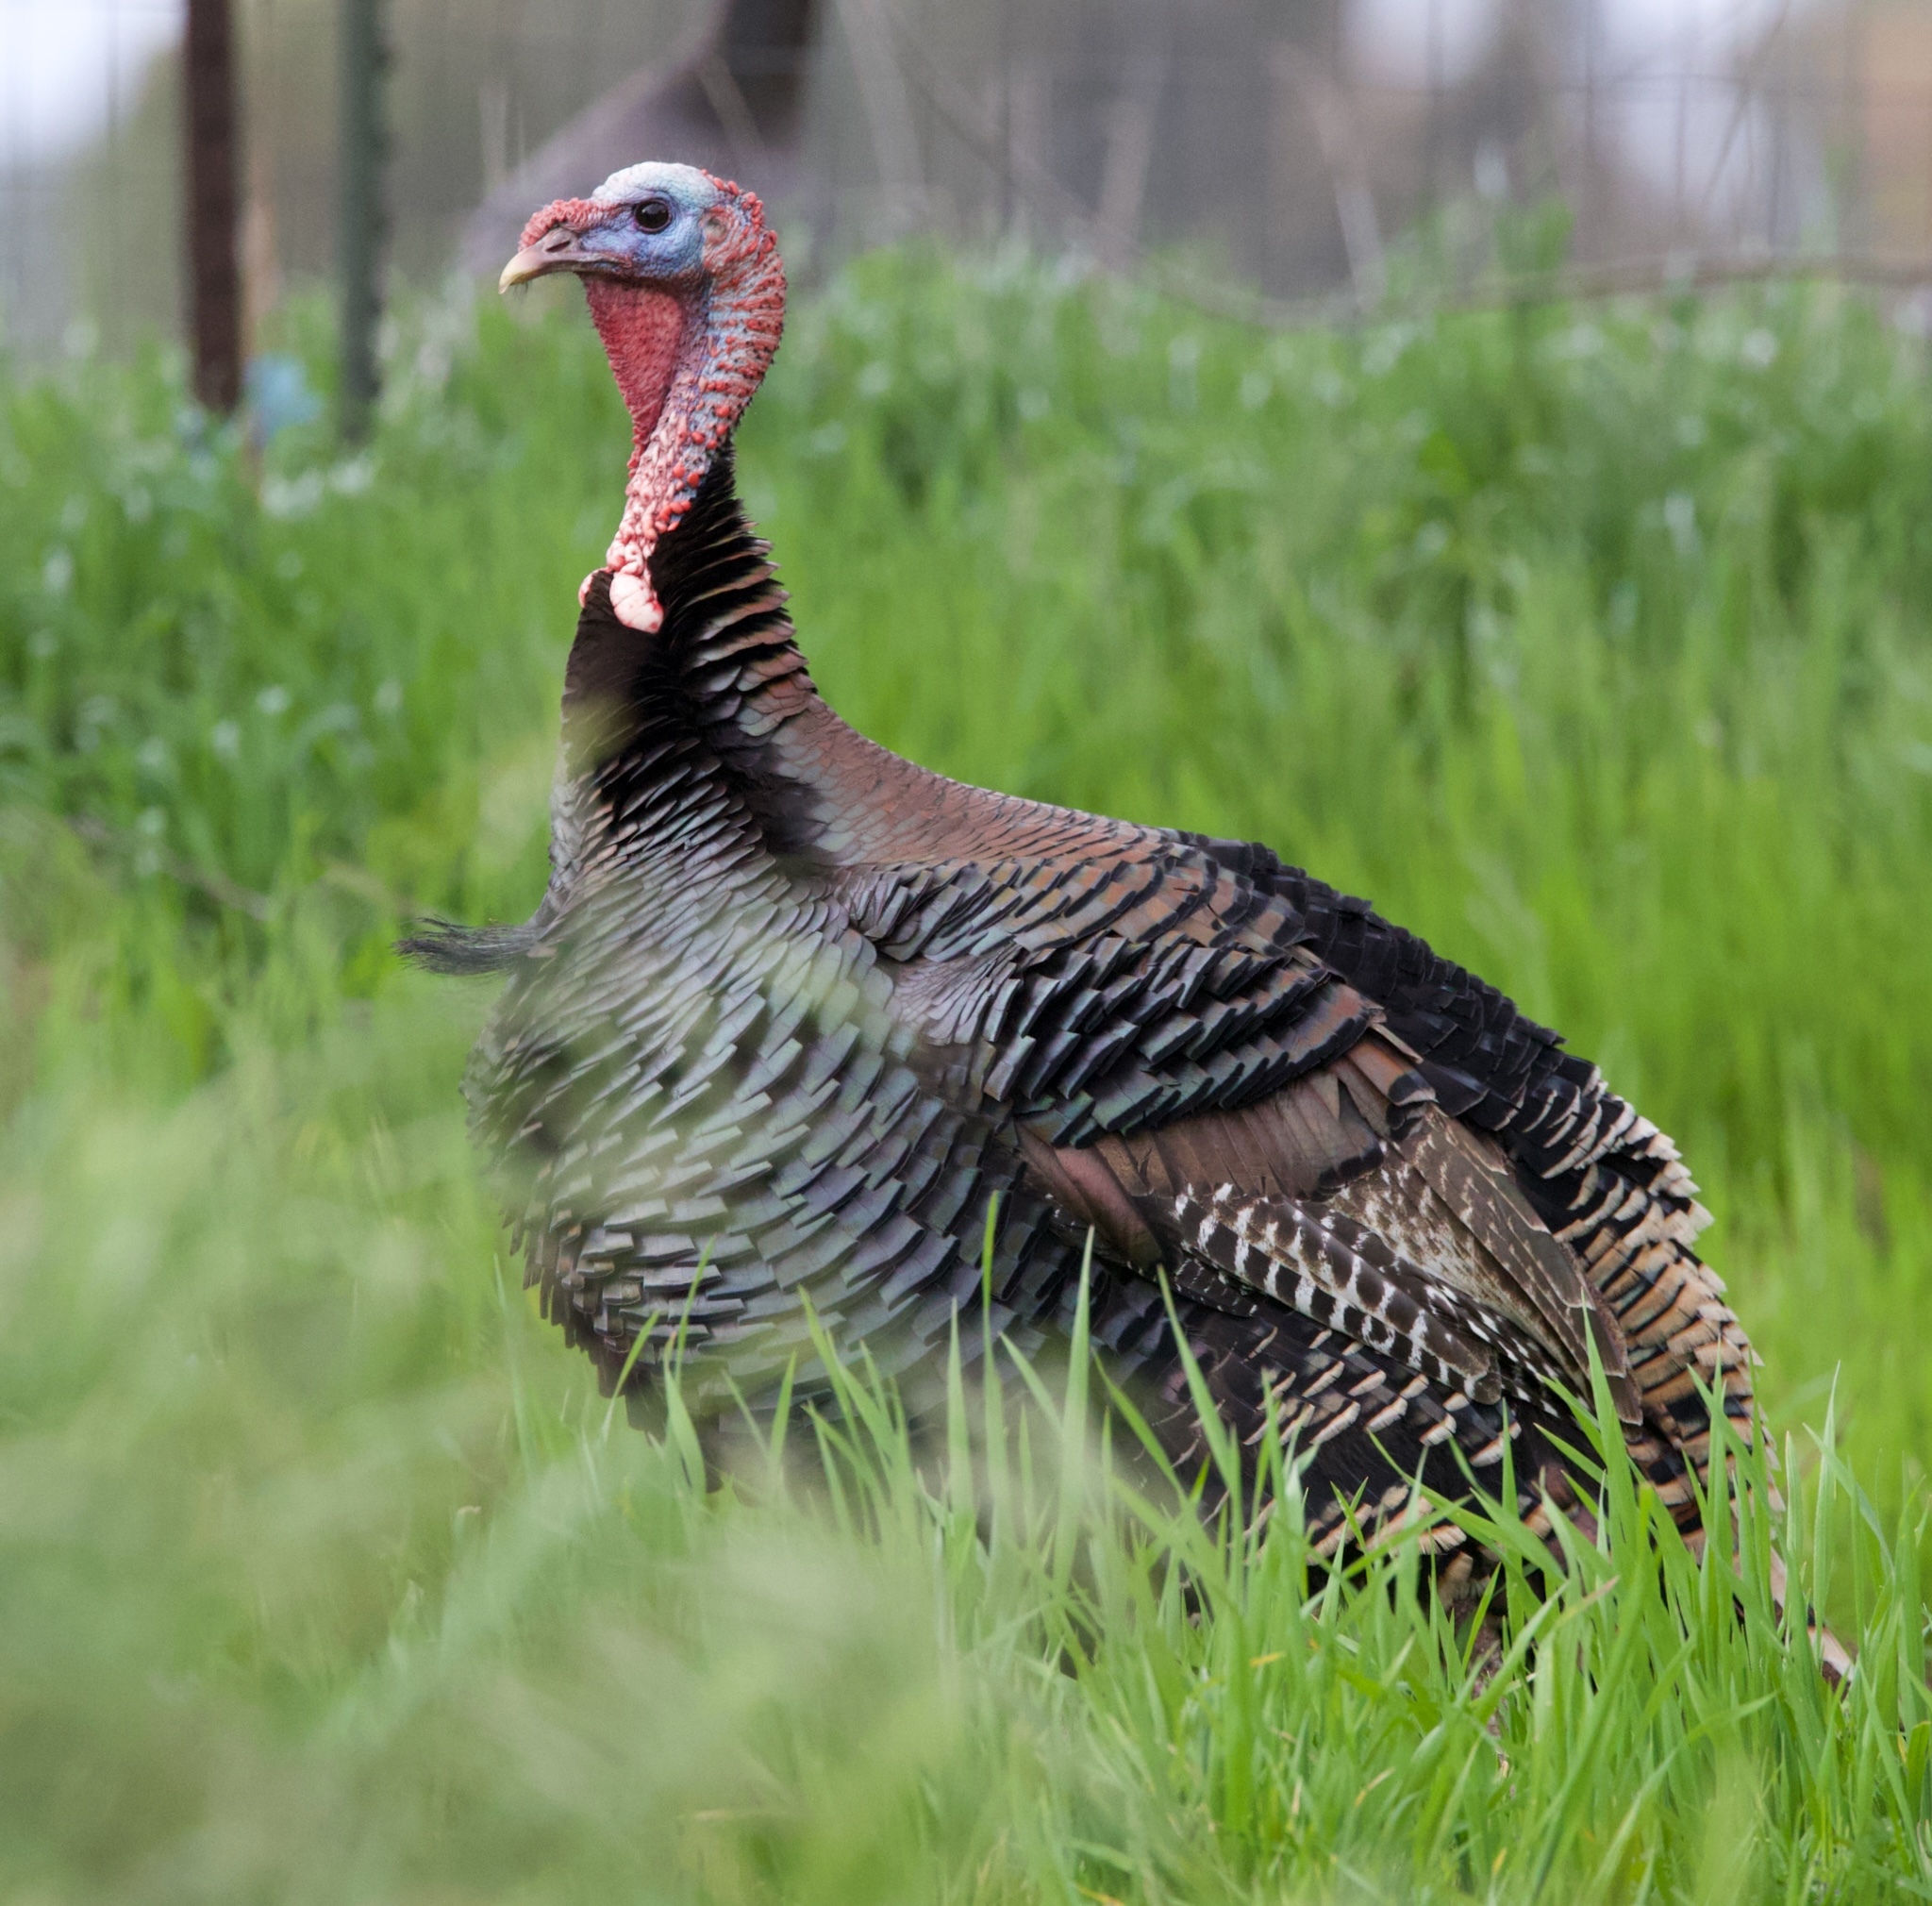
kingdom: Animalia
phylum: Chordata
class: Aves
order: Galliformes
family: Phasianidae
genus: Meleagris
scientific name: Meleagris gallopavo
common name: Wild turkey
